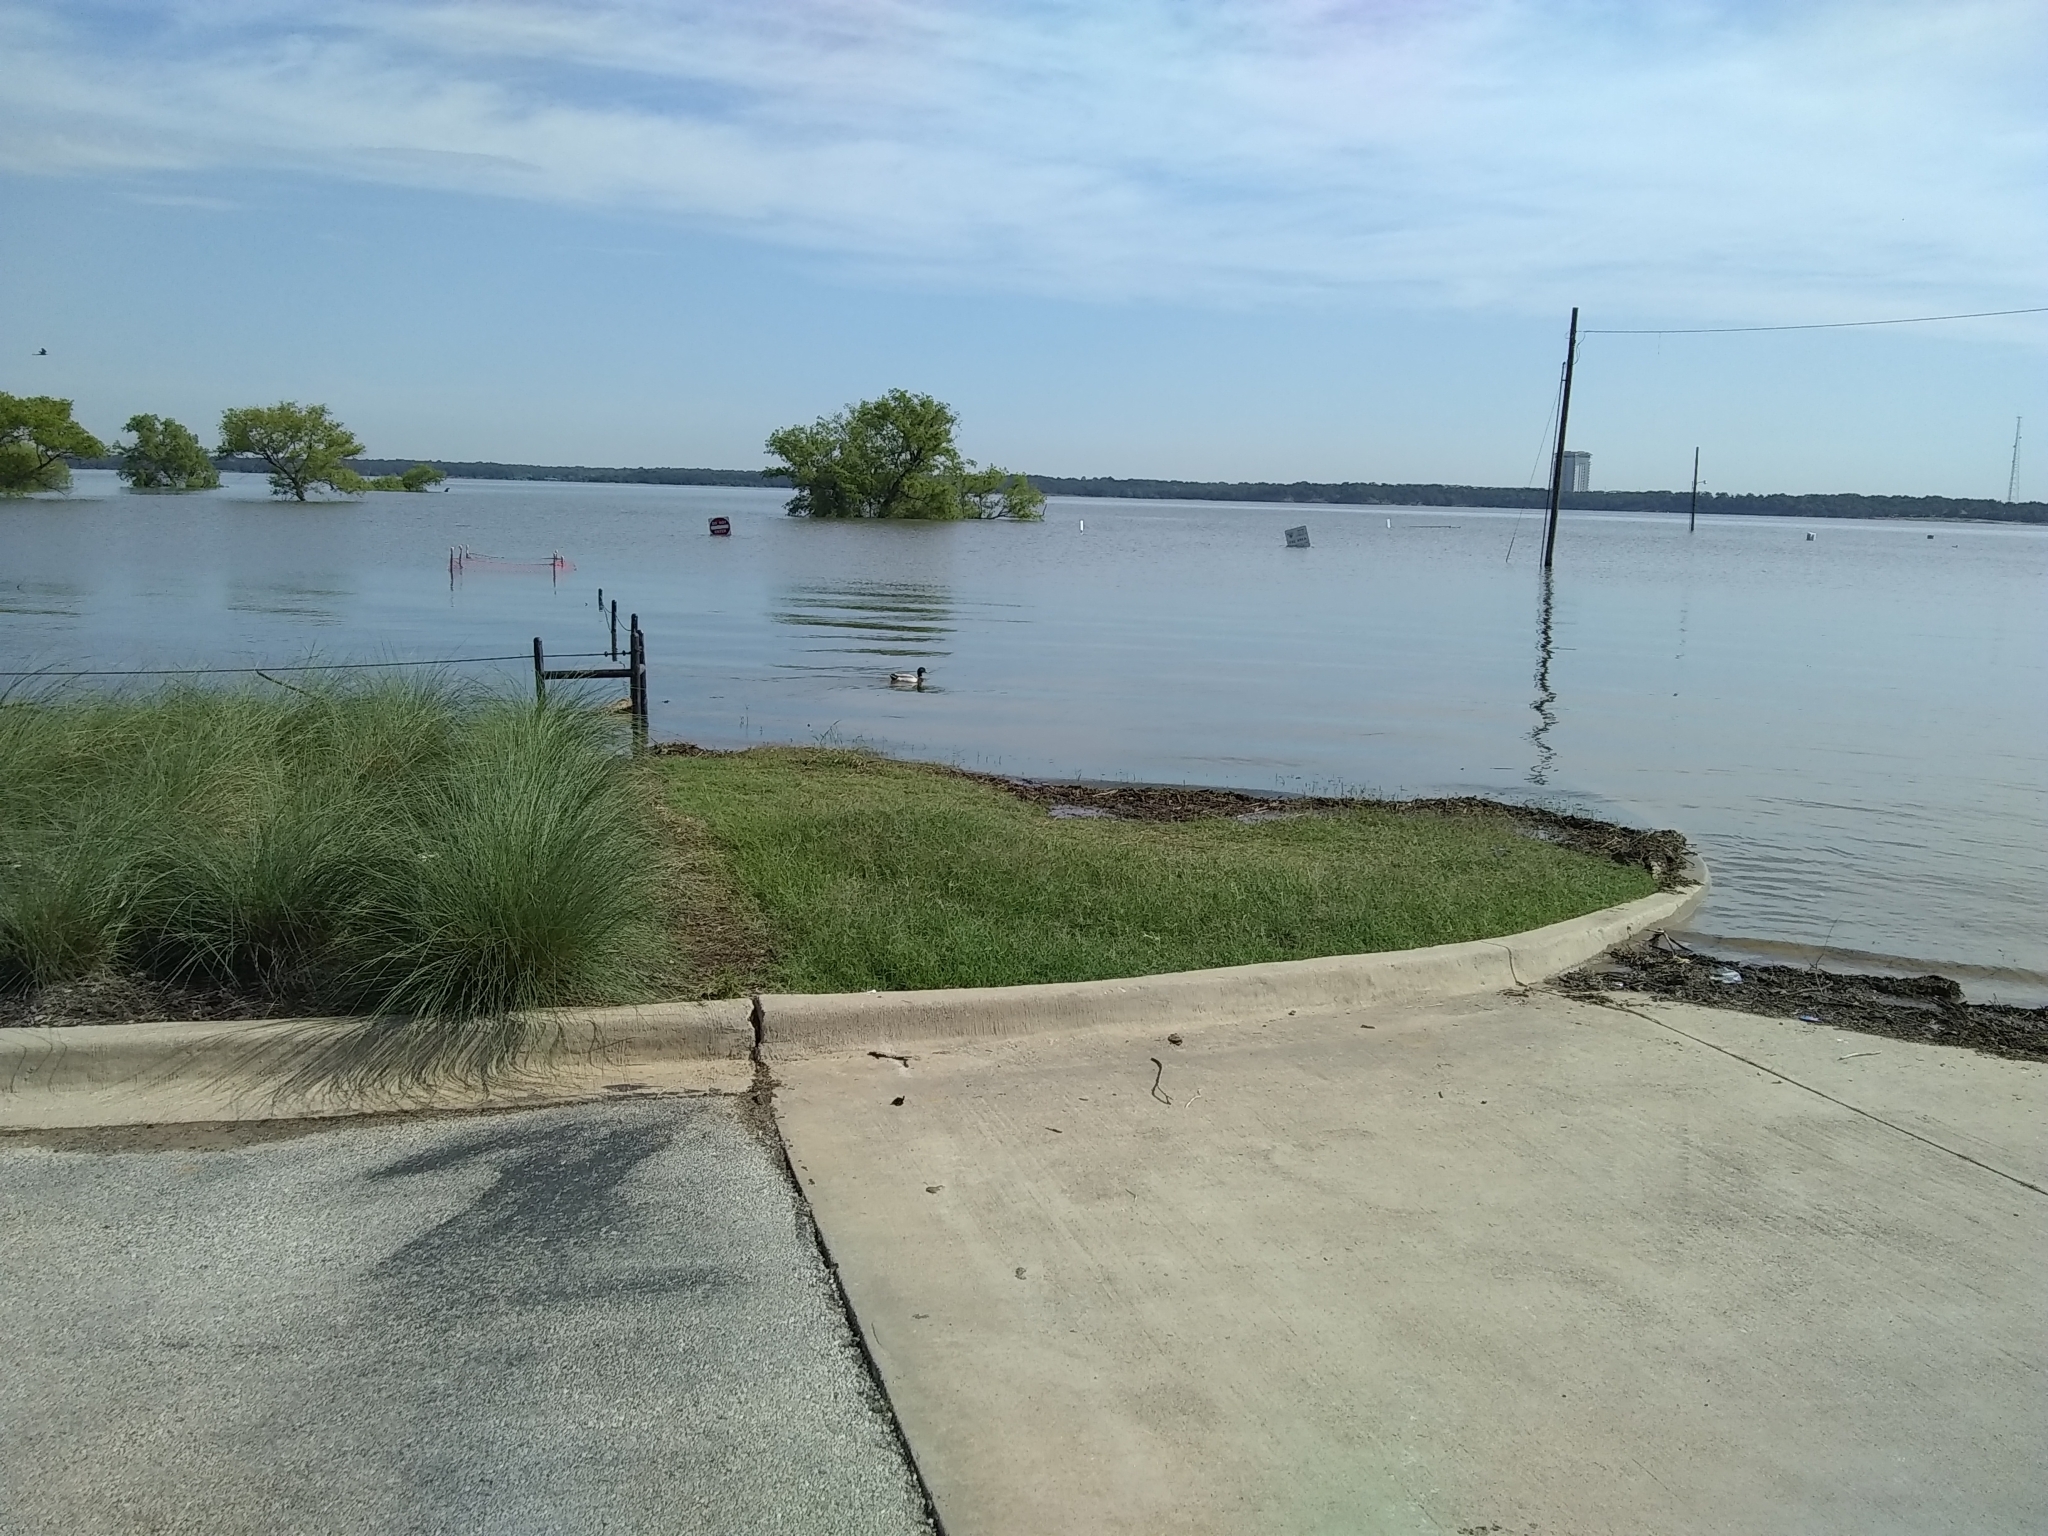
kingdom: Animalia
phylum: Chordata
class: Aves
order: Anseriformes
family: Anatidae
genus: Anas
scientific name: Anas platyrhynchos
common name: Mallard
